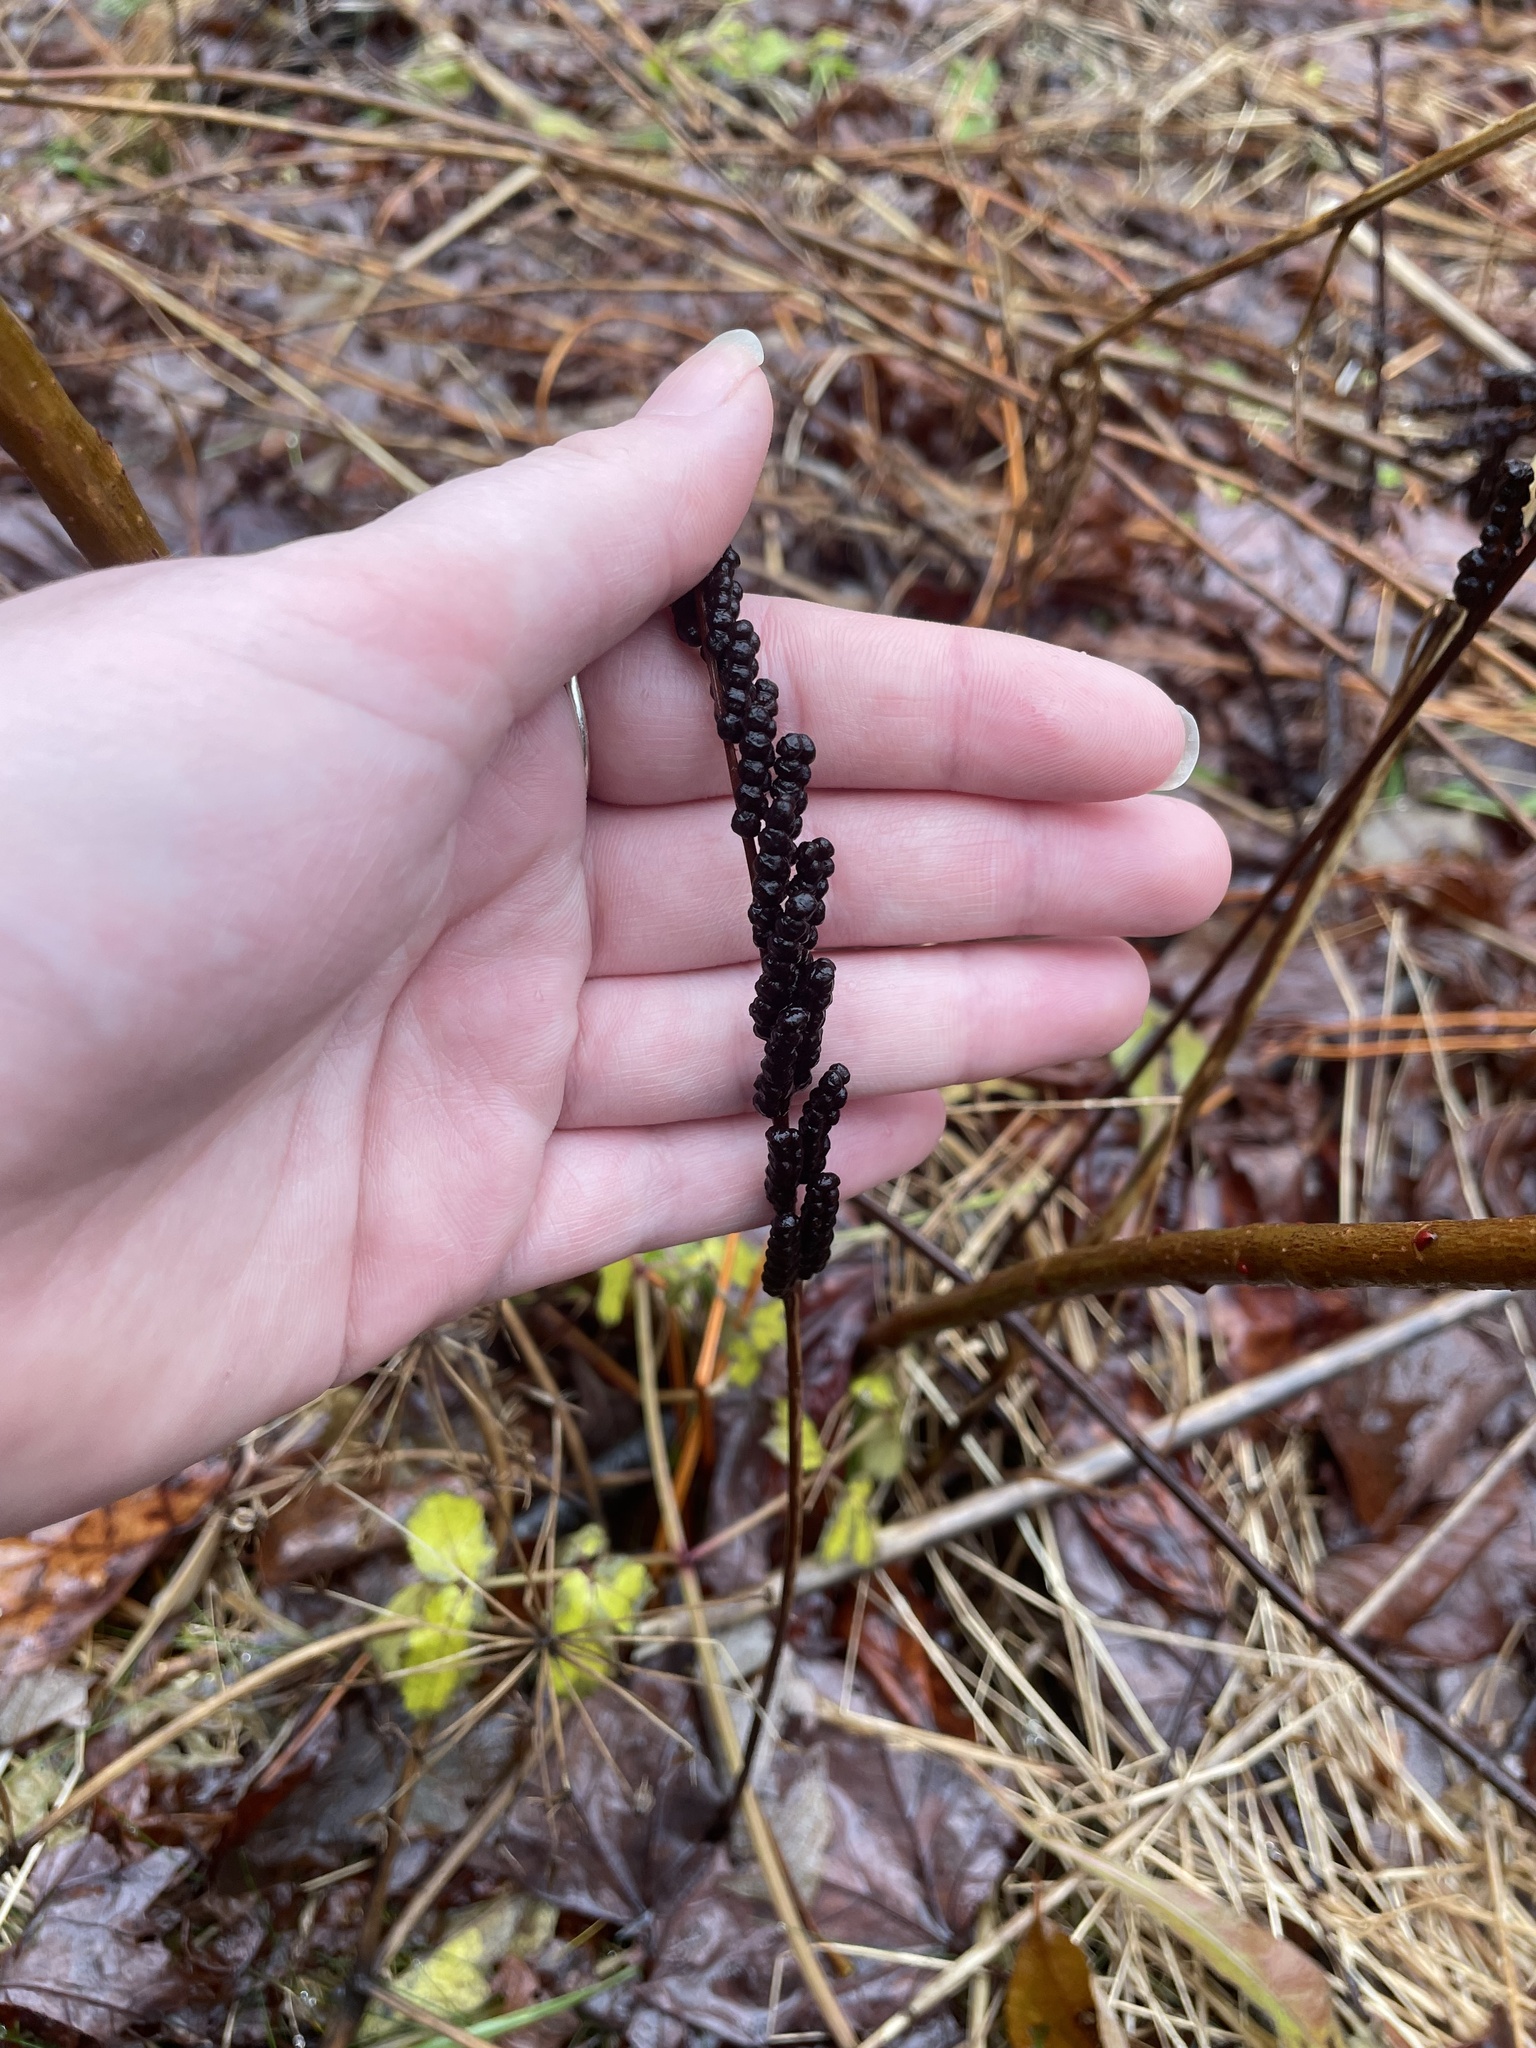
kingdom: Plantae
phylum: Tracheophyta
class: Polypodiopsida
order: Polypodiales
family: Onocleaceae
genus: Onoclea
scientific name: Onoclea sensibilis
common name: Sensitive fern
